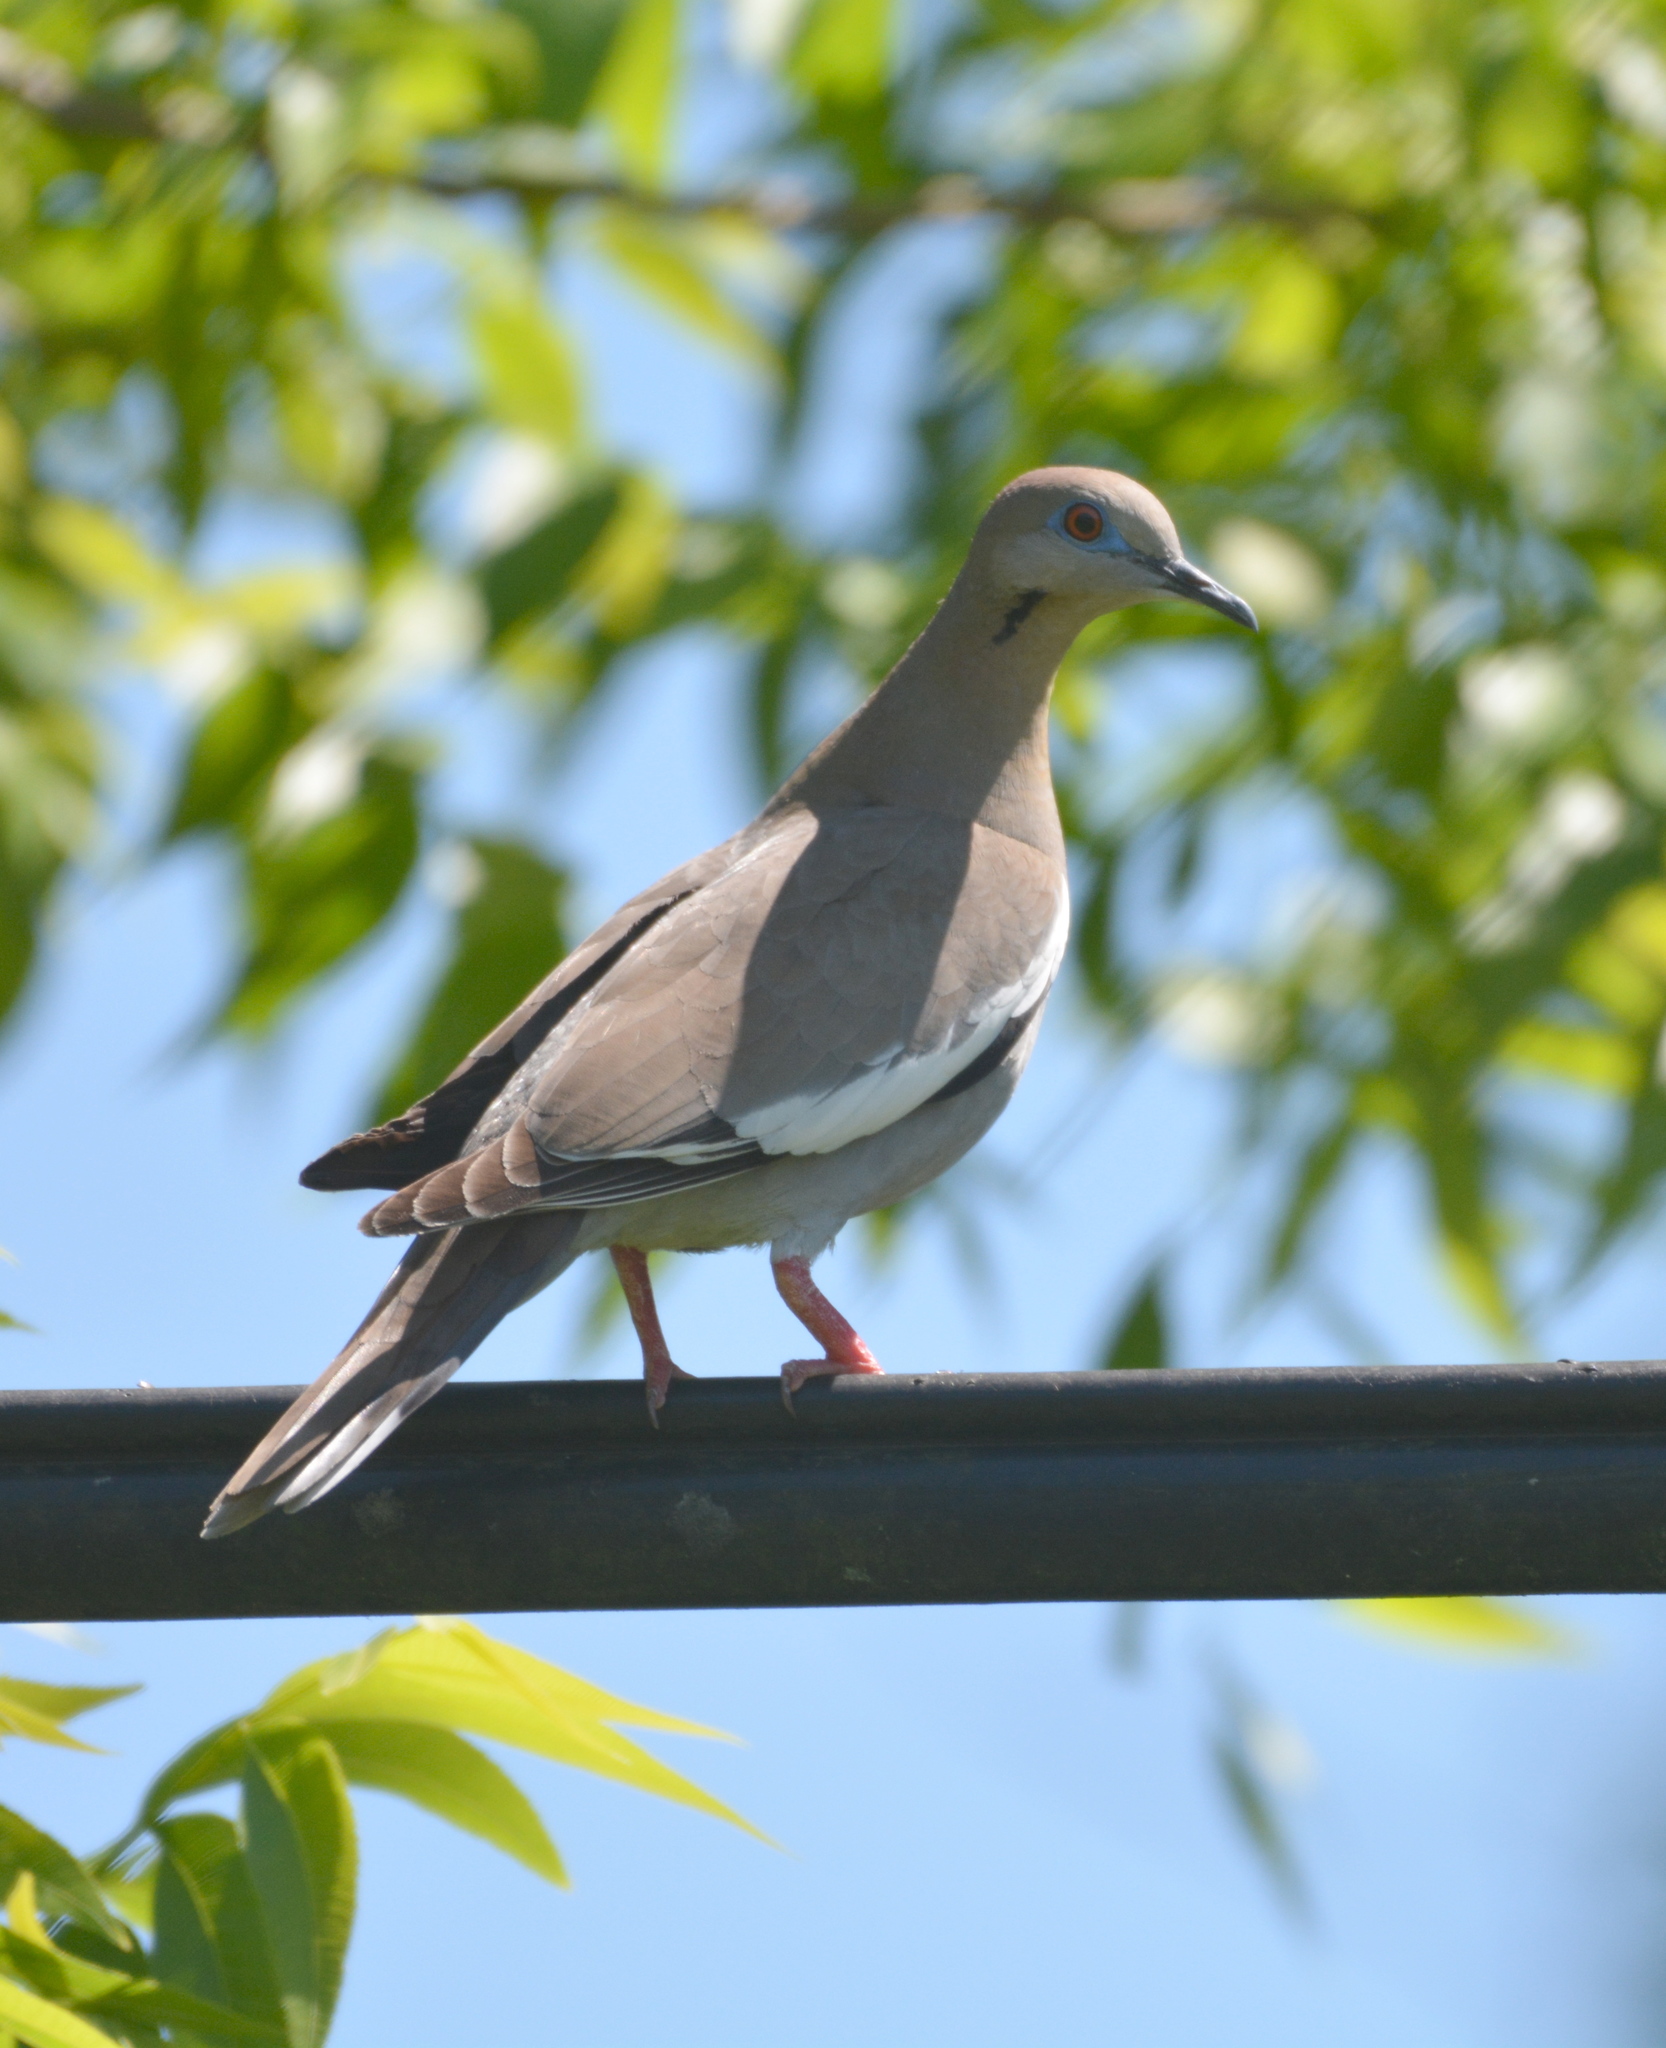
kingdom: Animalia
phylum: Chordata
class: Aves
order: Columbiformes
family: Columbidae
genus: Zenaida
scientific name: Zenaida asiatica
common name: White-winged dove
